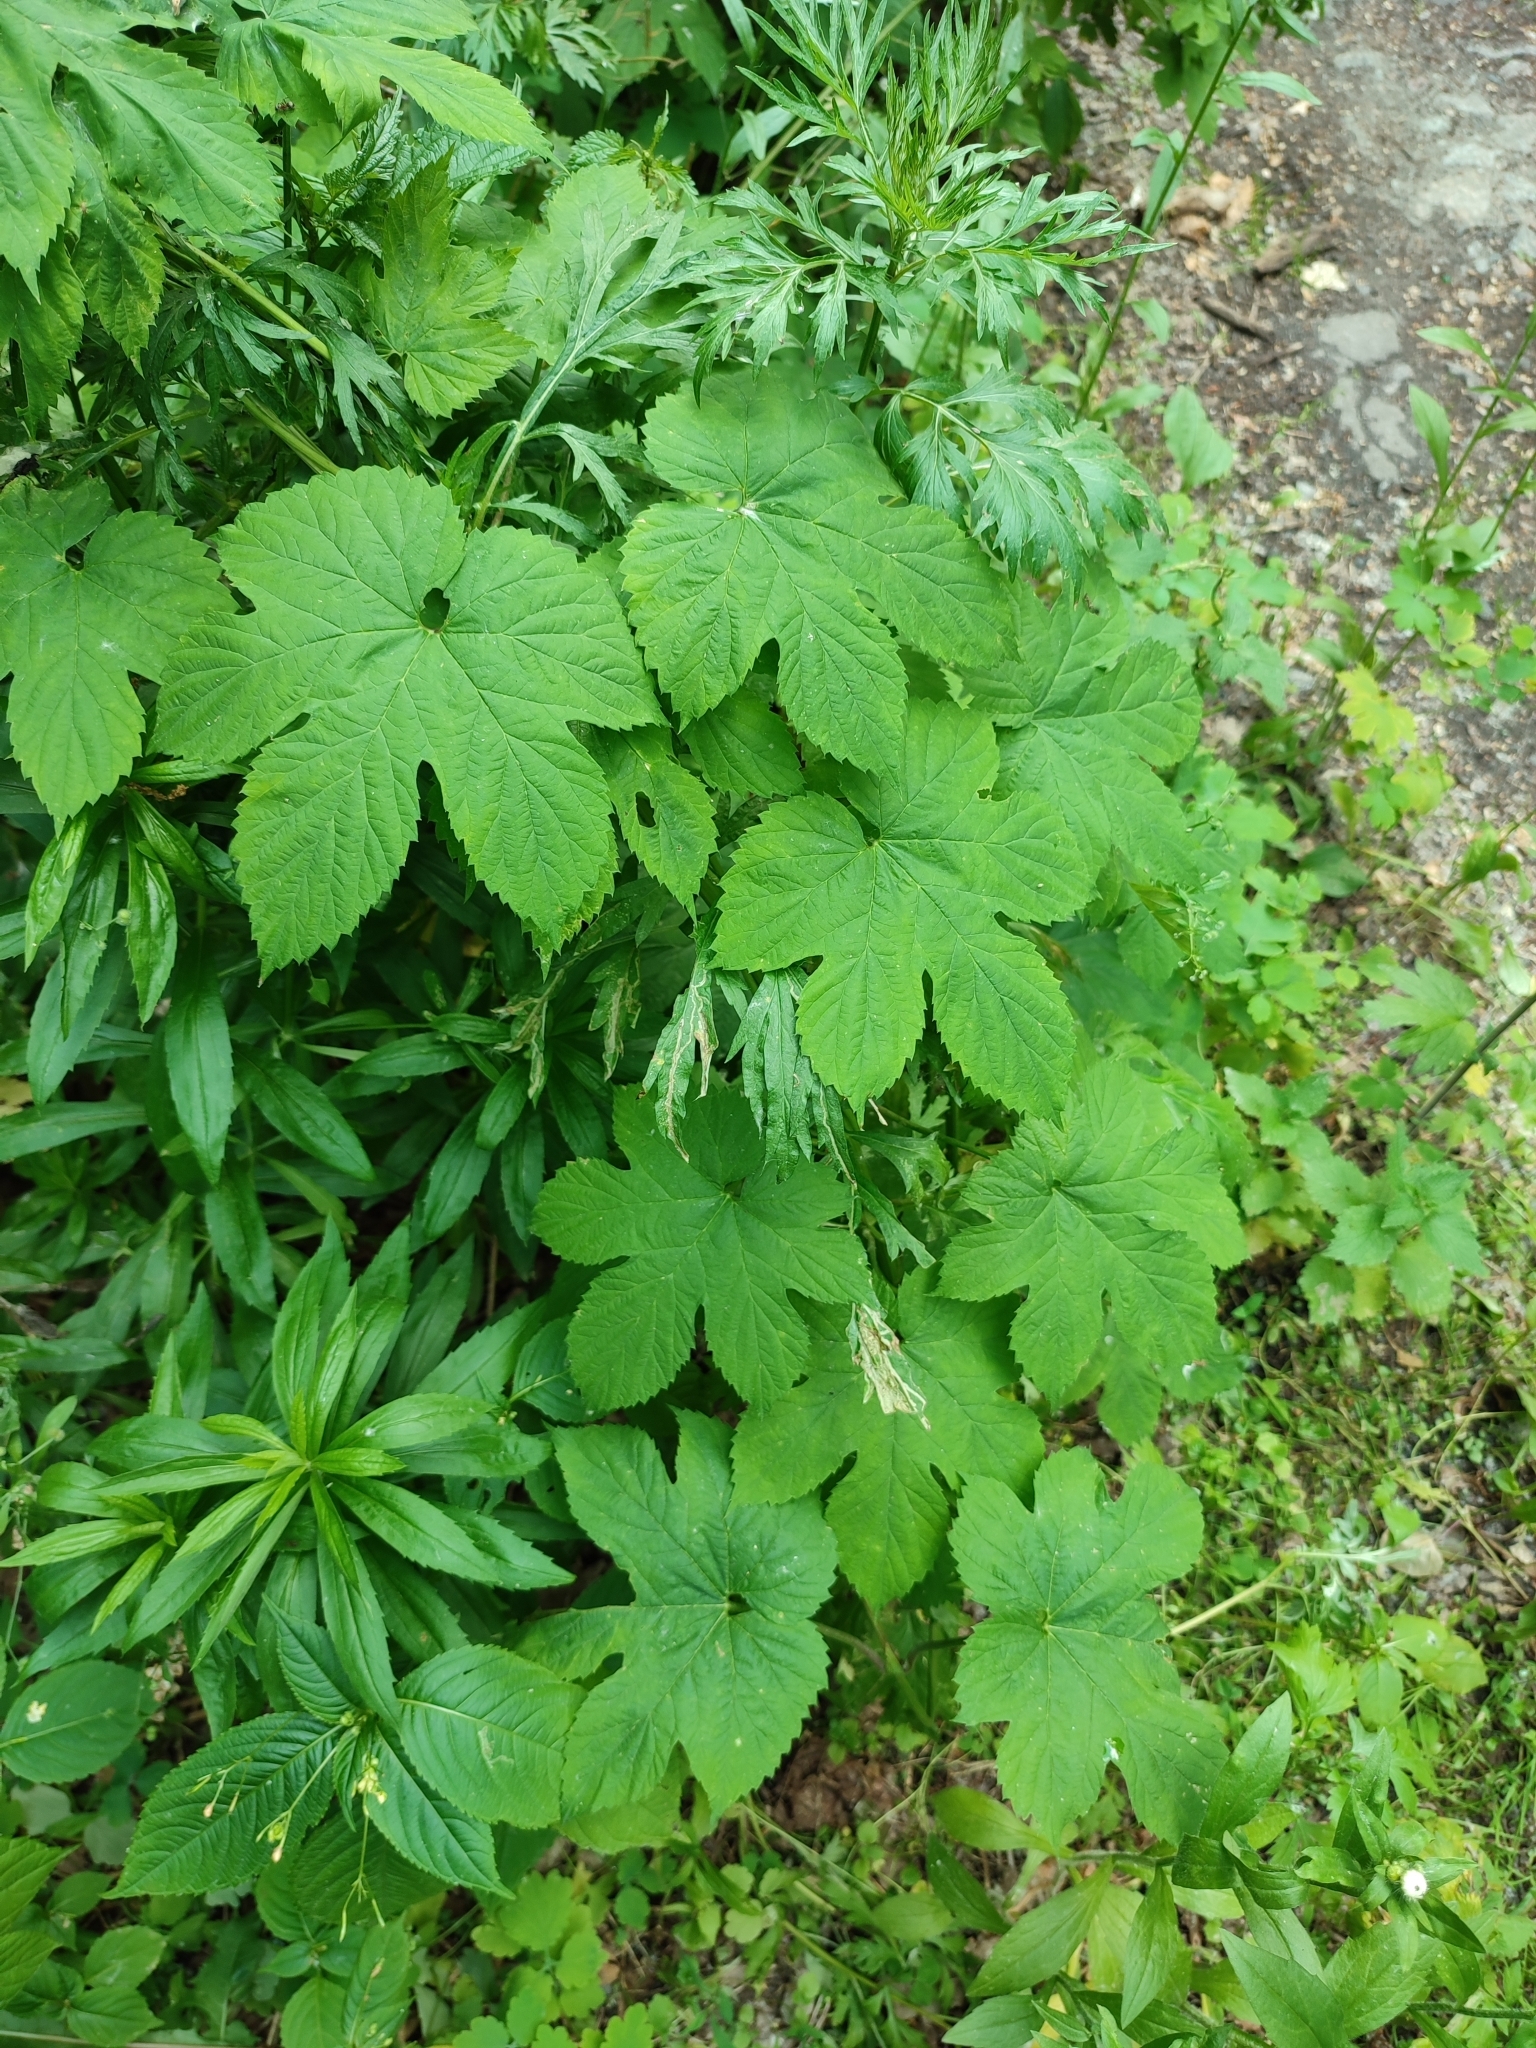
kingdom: Plantae
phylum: Tracheophyta
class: Magnoliopsida
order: Rosales
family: Cannabaceae
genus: Humulus
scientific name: Humulus lupulus
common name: Hop
